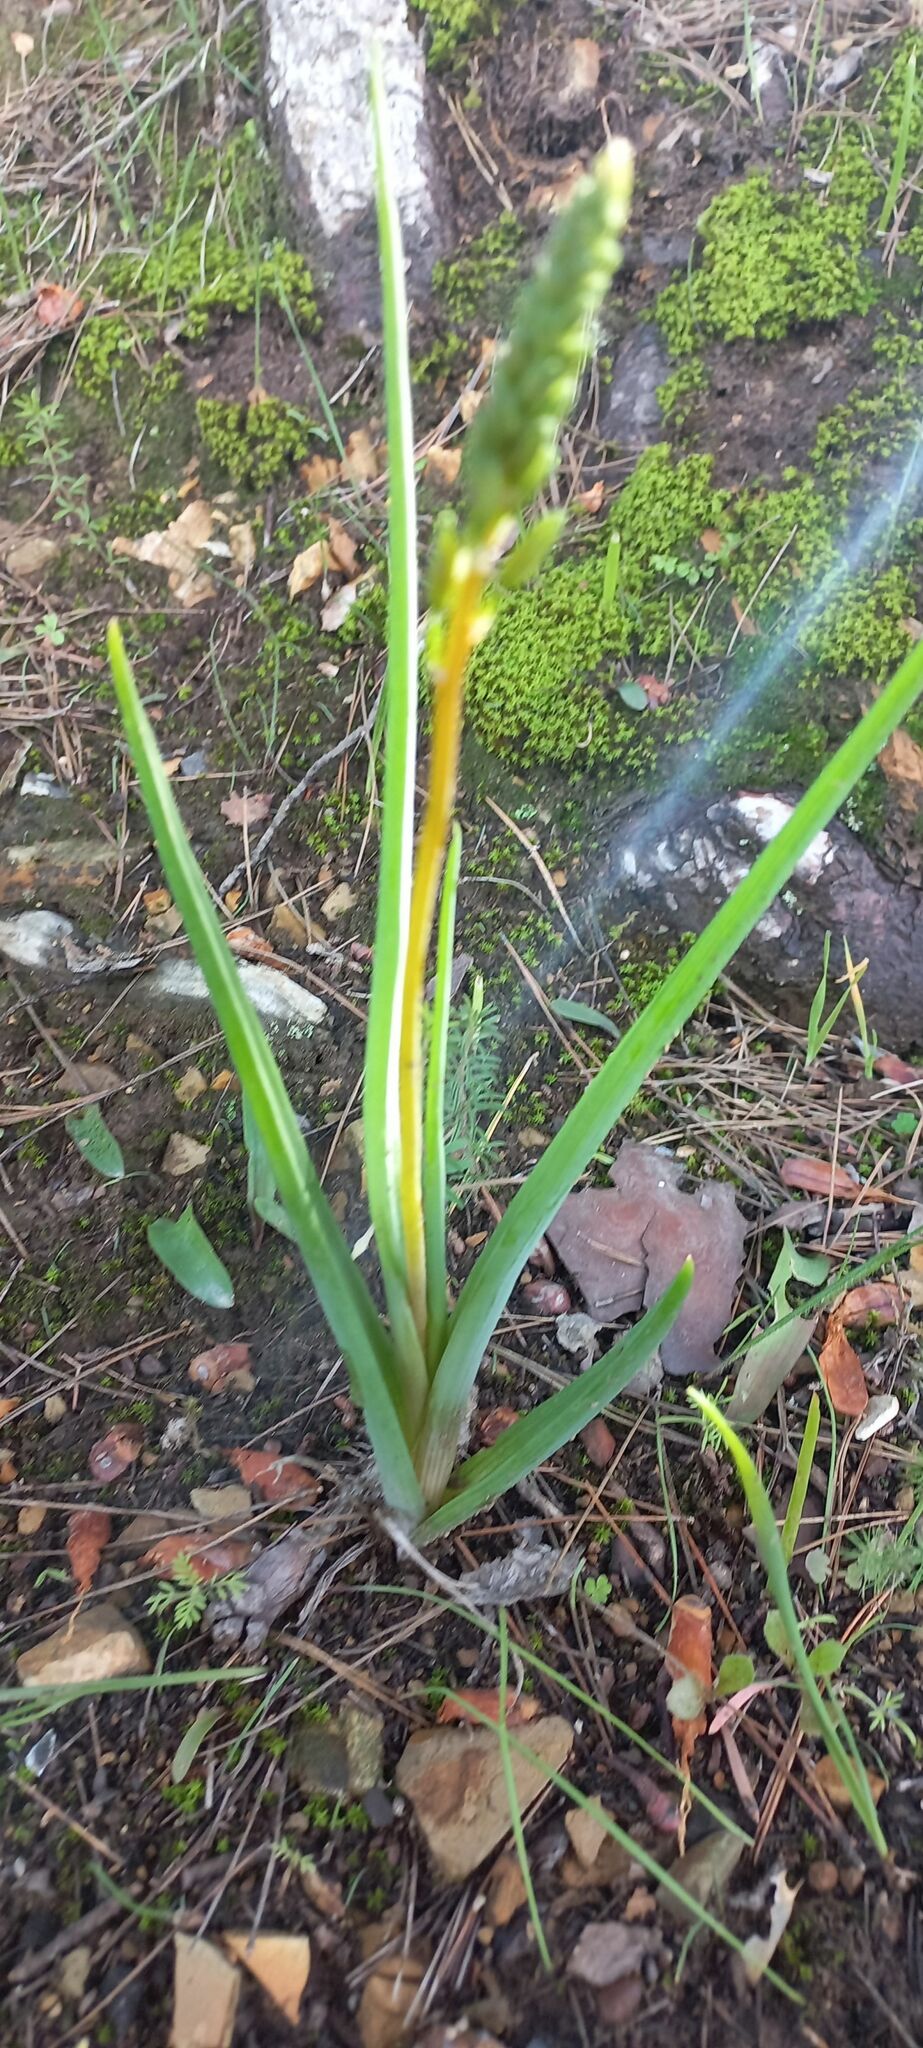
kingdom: Plantae
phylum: Tracheophyta
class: Liliopsida
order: Asparagales
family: Asphodelaceae
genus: Bulbine
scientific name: Bulbine cepacea
